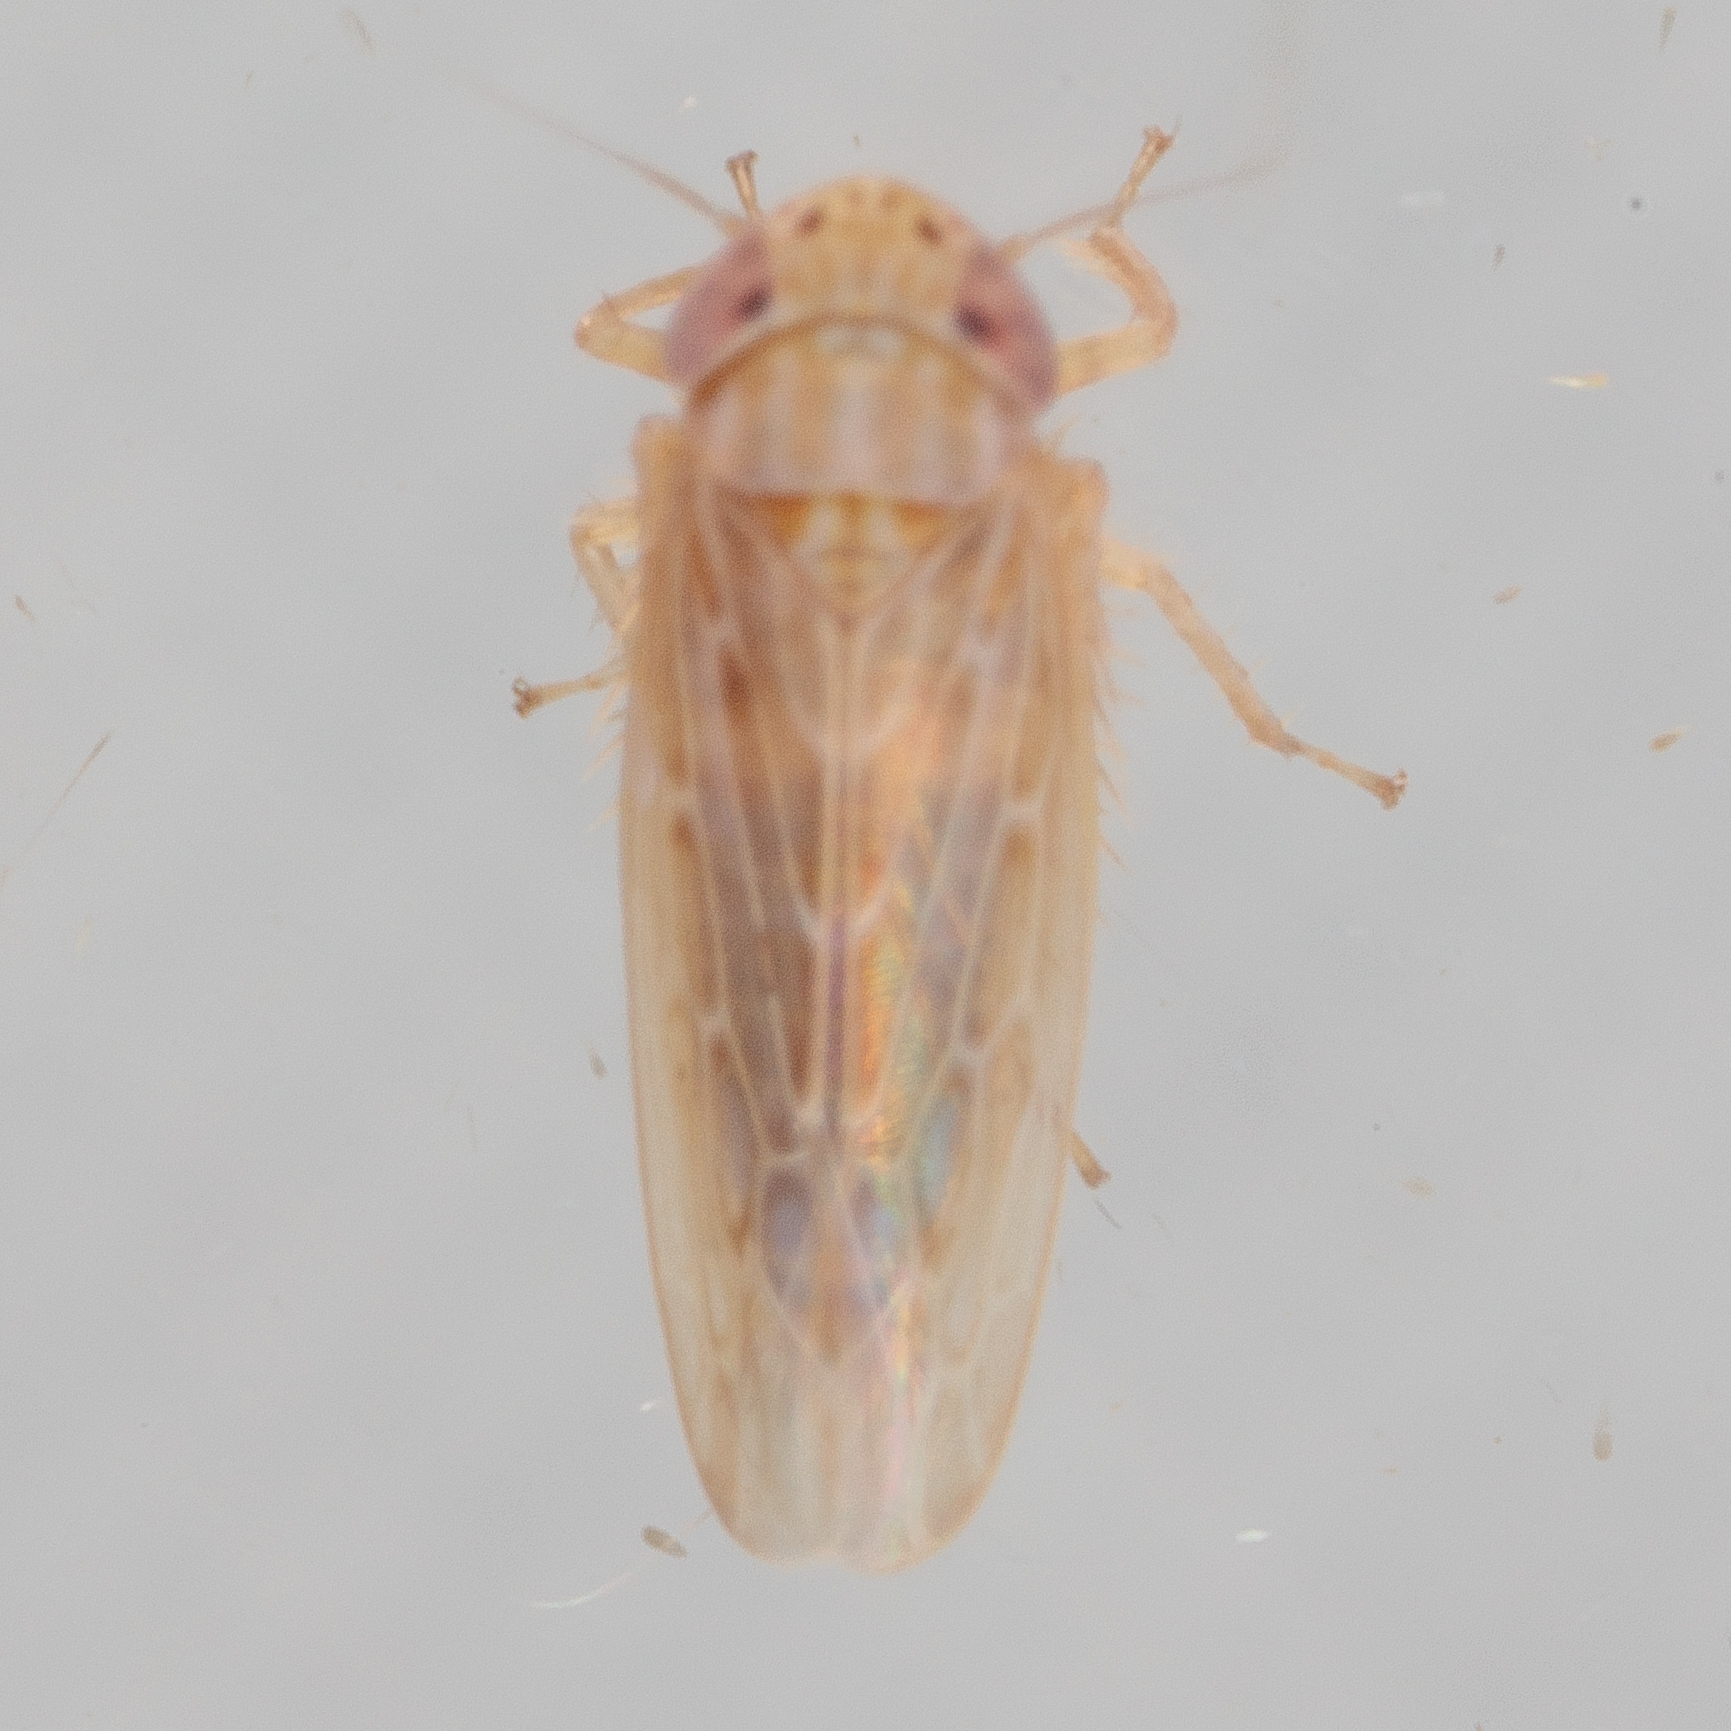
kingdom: Animalia
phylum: Arthropoda
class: Insecta
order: Hemiptera
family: Cicadellidae
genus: Graminella
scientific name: Graminella sonora
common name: Lesser lawn leafhopper
